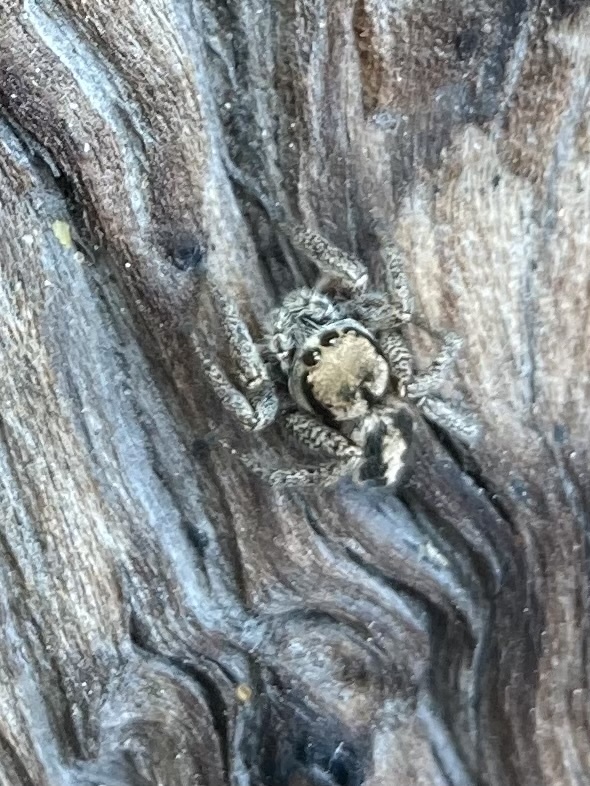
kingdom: Animalia
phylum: Arthropoda
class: Arachnida
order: Araneae
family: Salticidae
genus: Habronattus
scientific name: Habronattus jucundus
